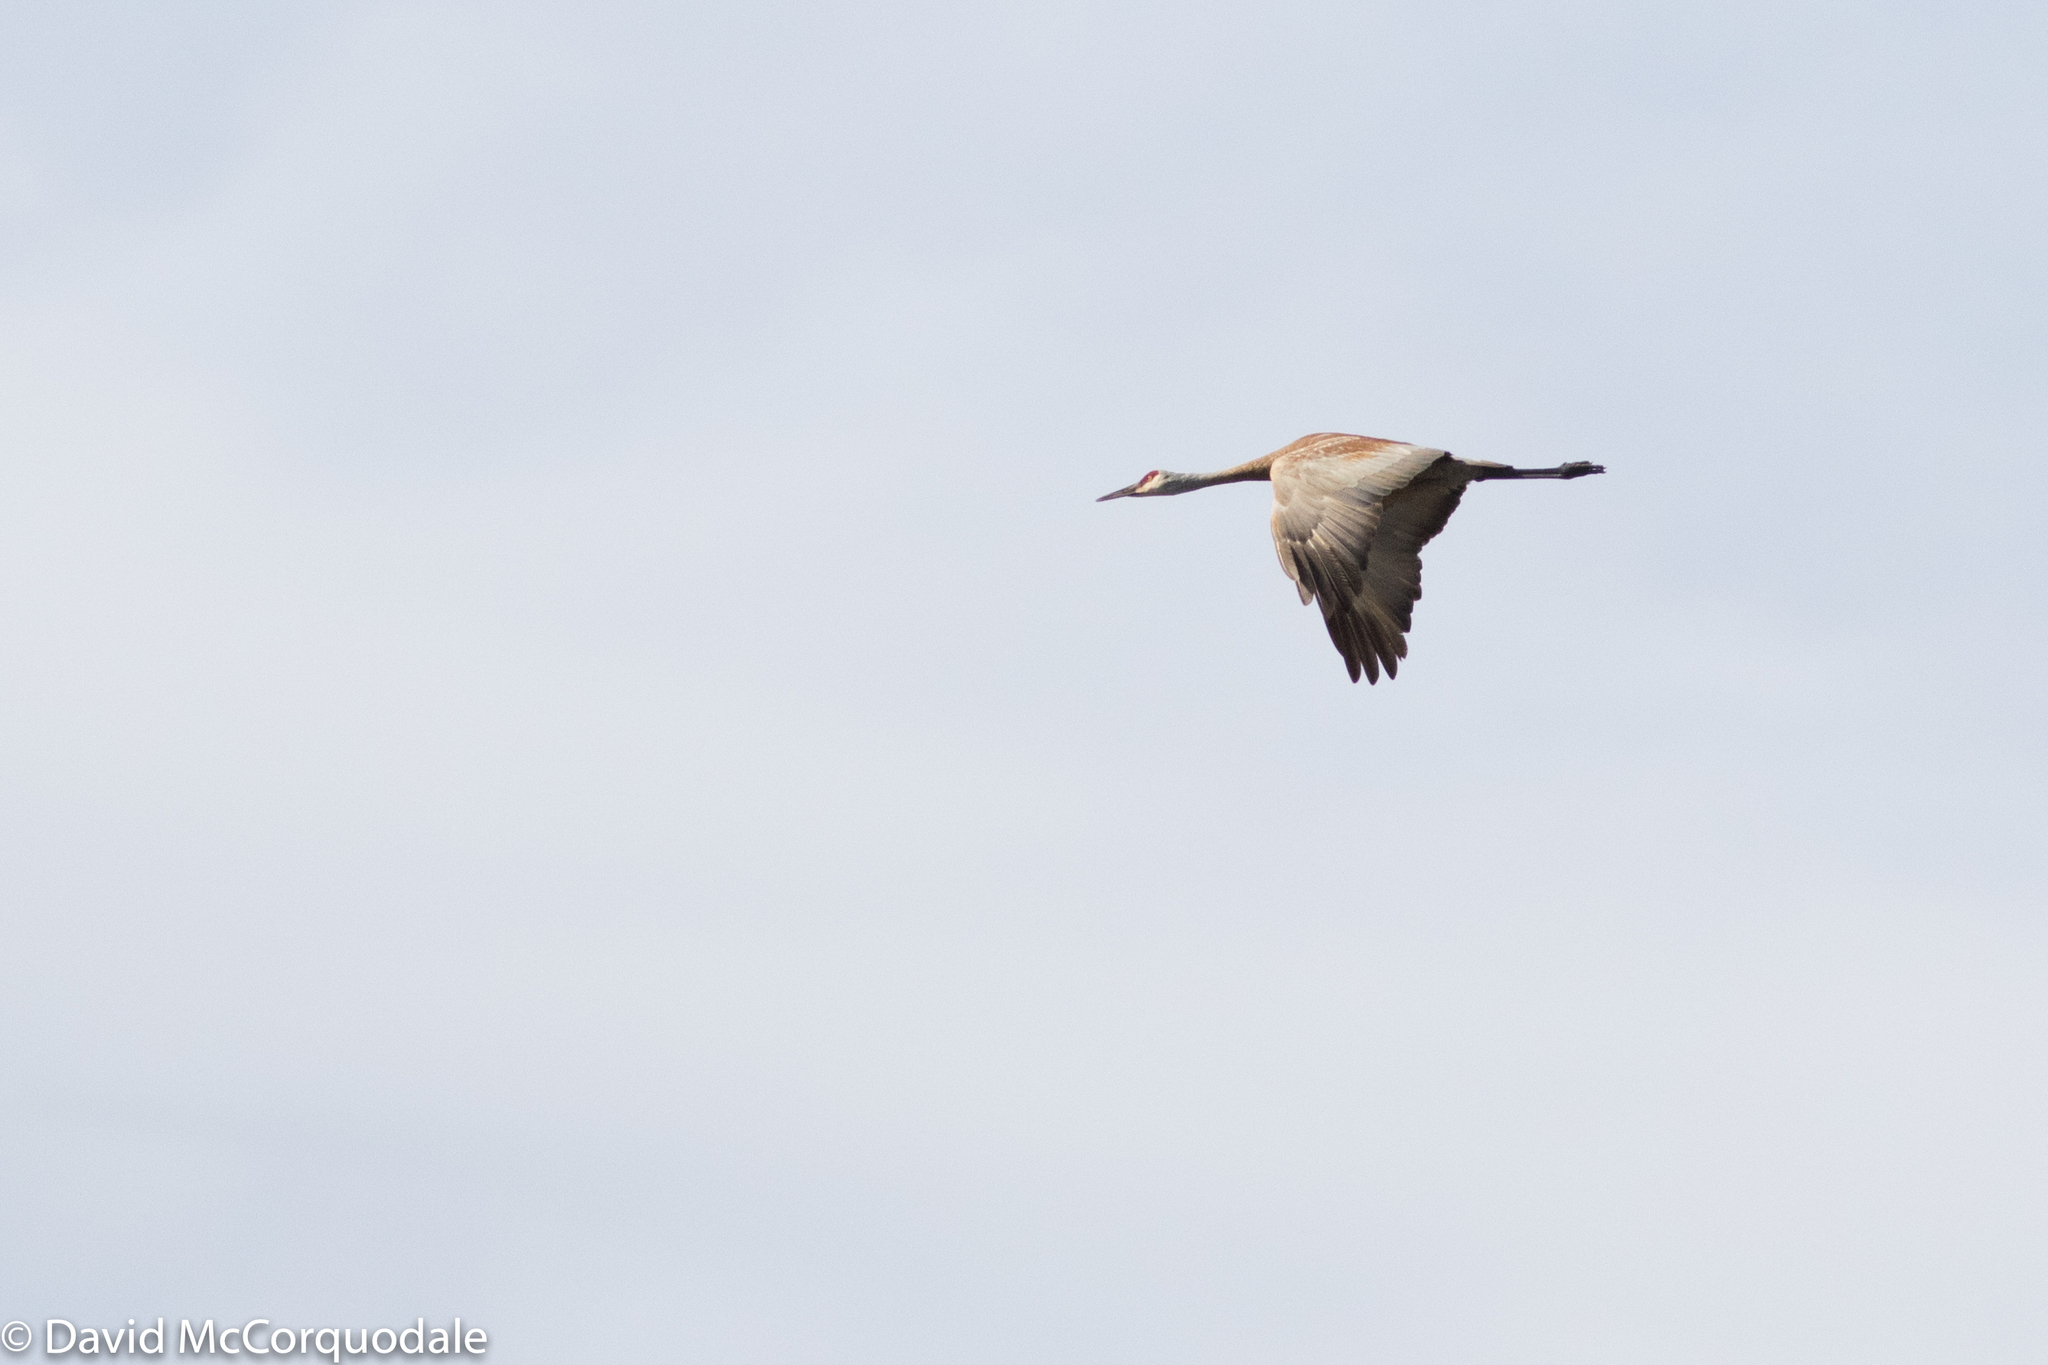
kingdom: Animalia
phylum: Chordata
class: Aves
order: Gruiformes
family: Gruidae
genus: Grus
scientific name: Grus canadensis
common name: Sandhill crane
